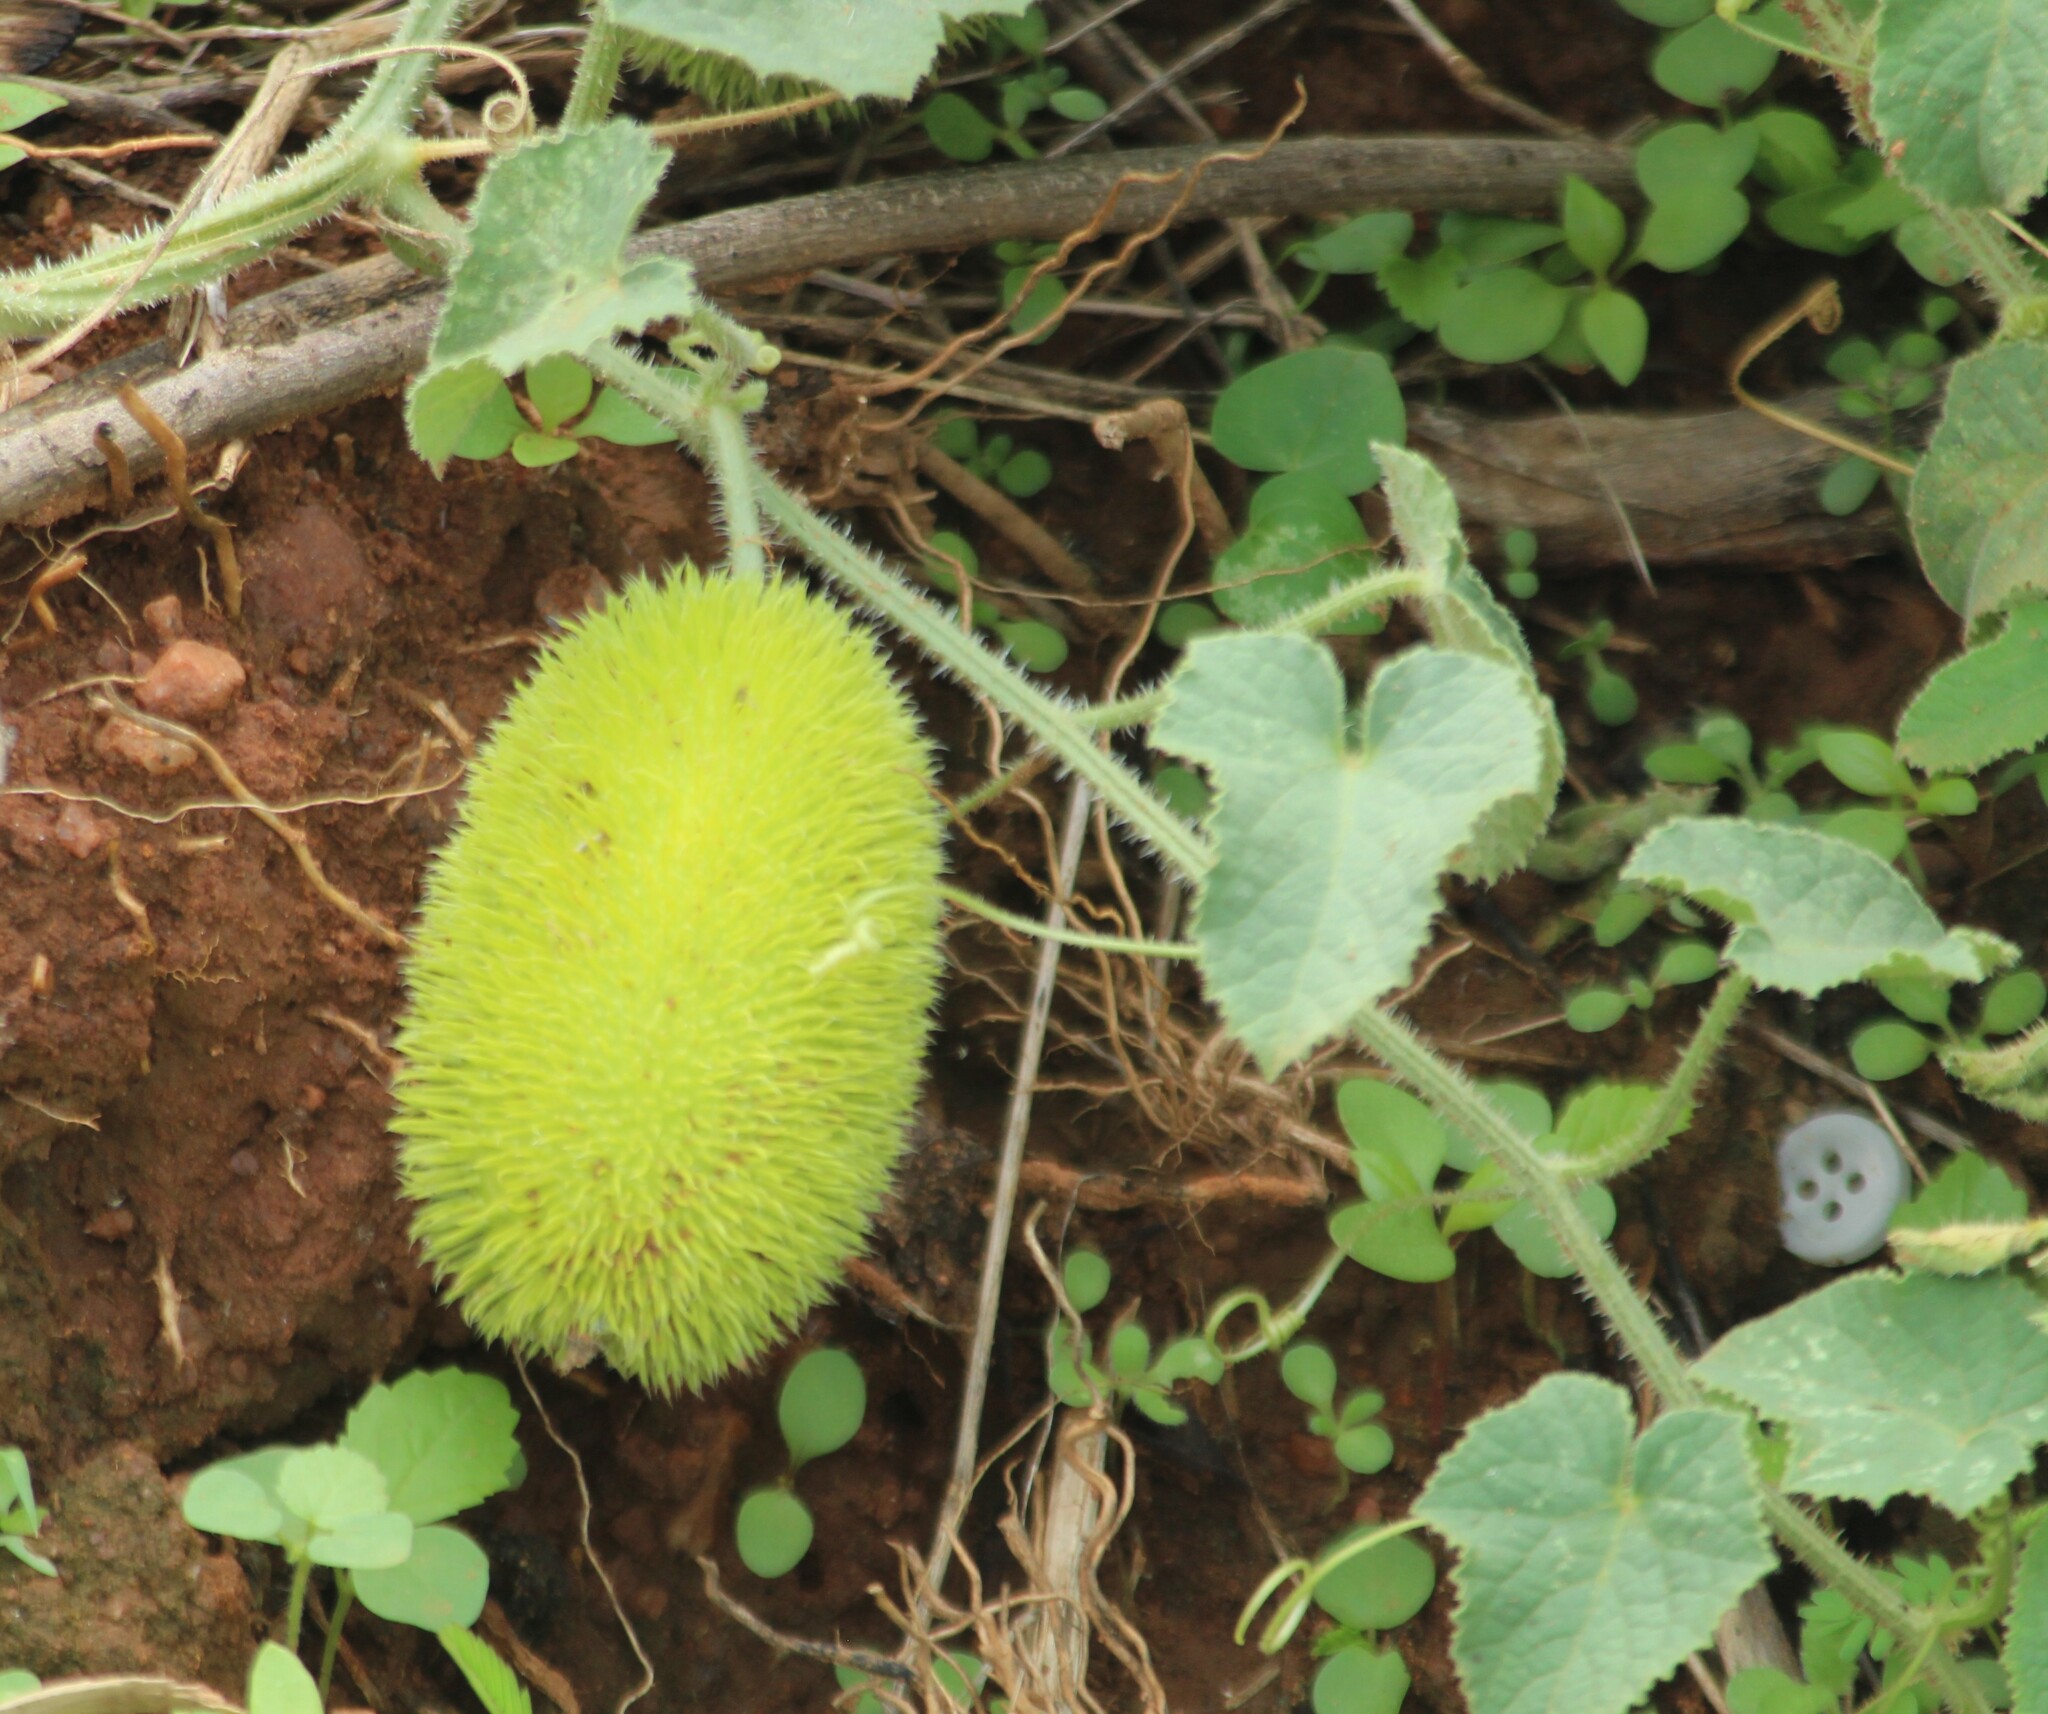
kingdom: Plantae
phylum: Tracheophyta
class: Magnoliopsida
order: Cucurbitales
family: Cucurbitaceae
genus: Cucumis
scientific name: Cucumis dipsaceus
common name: Hedgehog gourd
